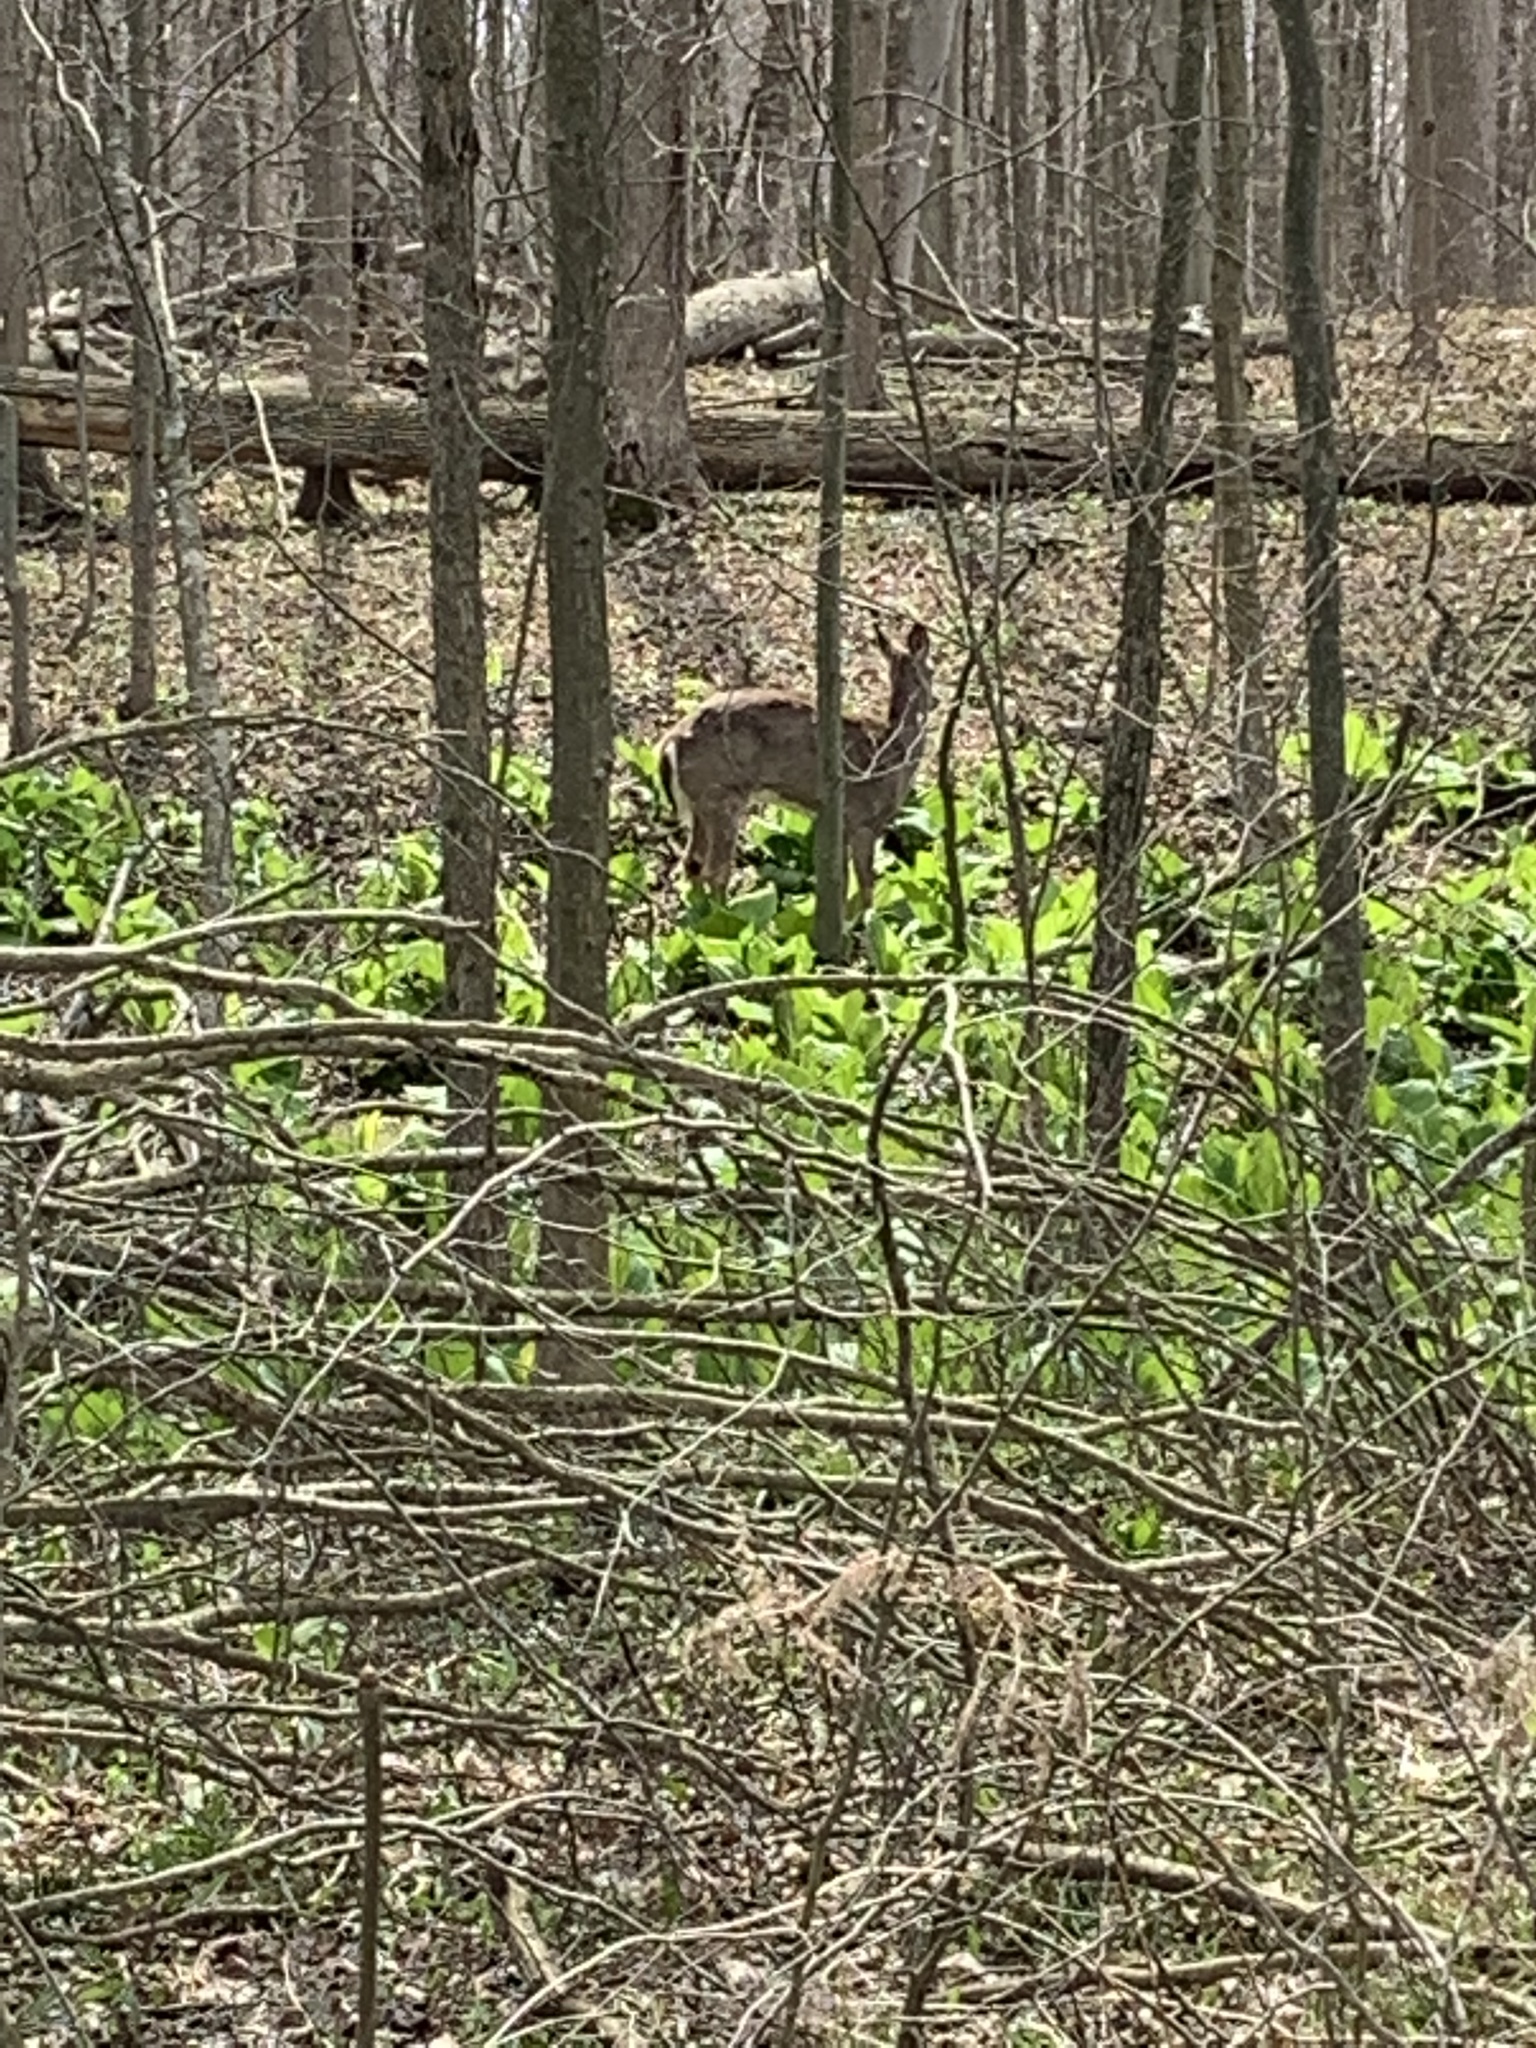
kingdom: Animalia
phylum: Chordata
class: Mammalia
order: Artiodactyla
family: Cervidae
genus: Odocoileus
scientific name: Odocoileus virginianus
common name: White-tailed deer
